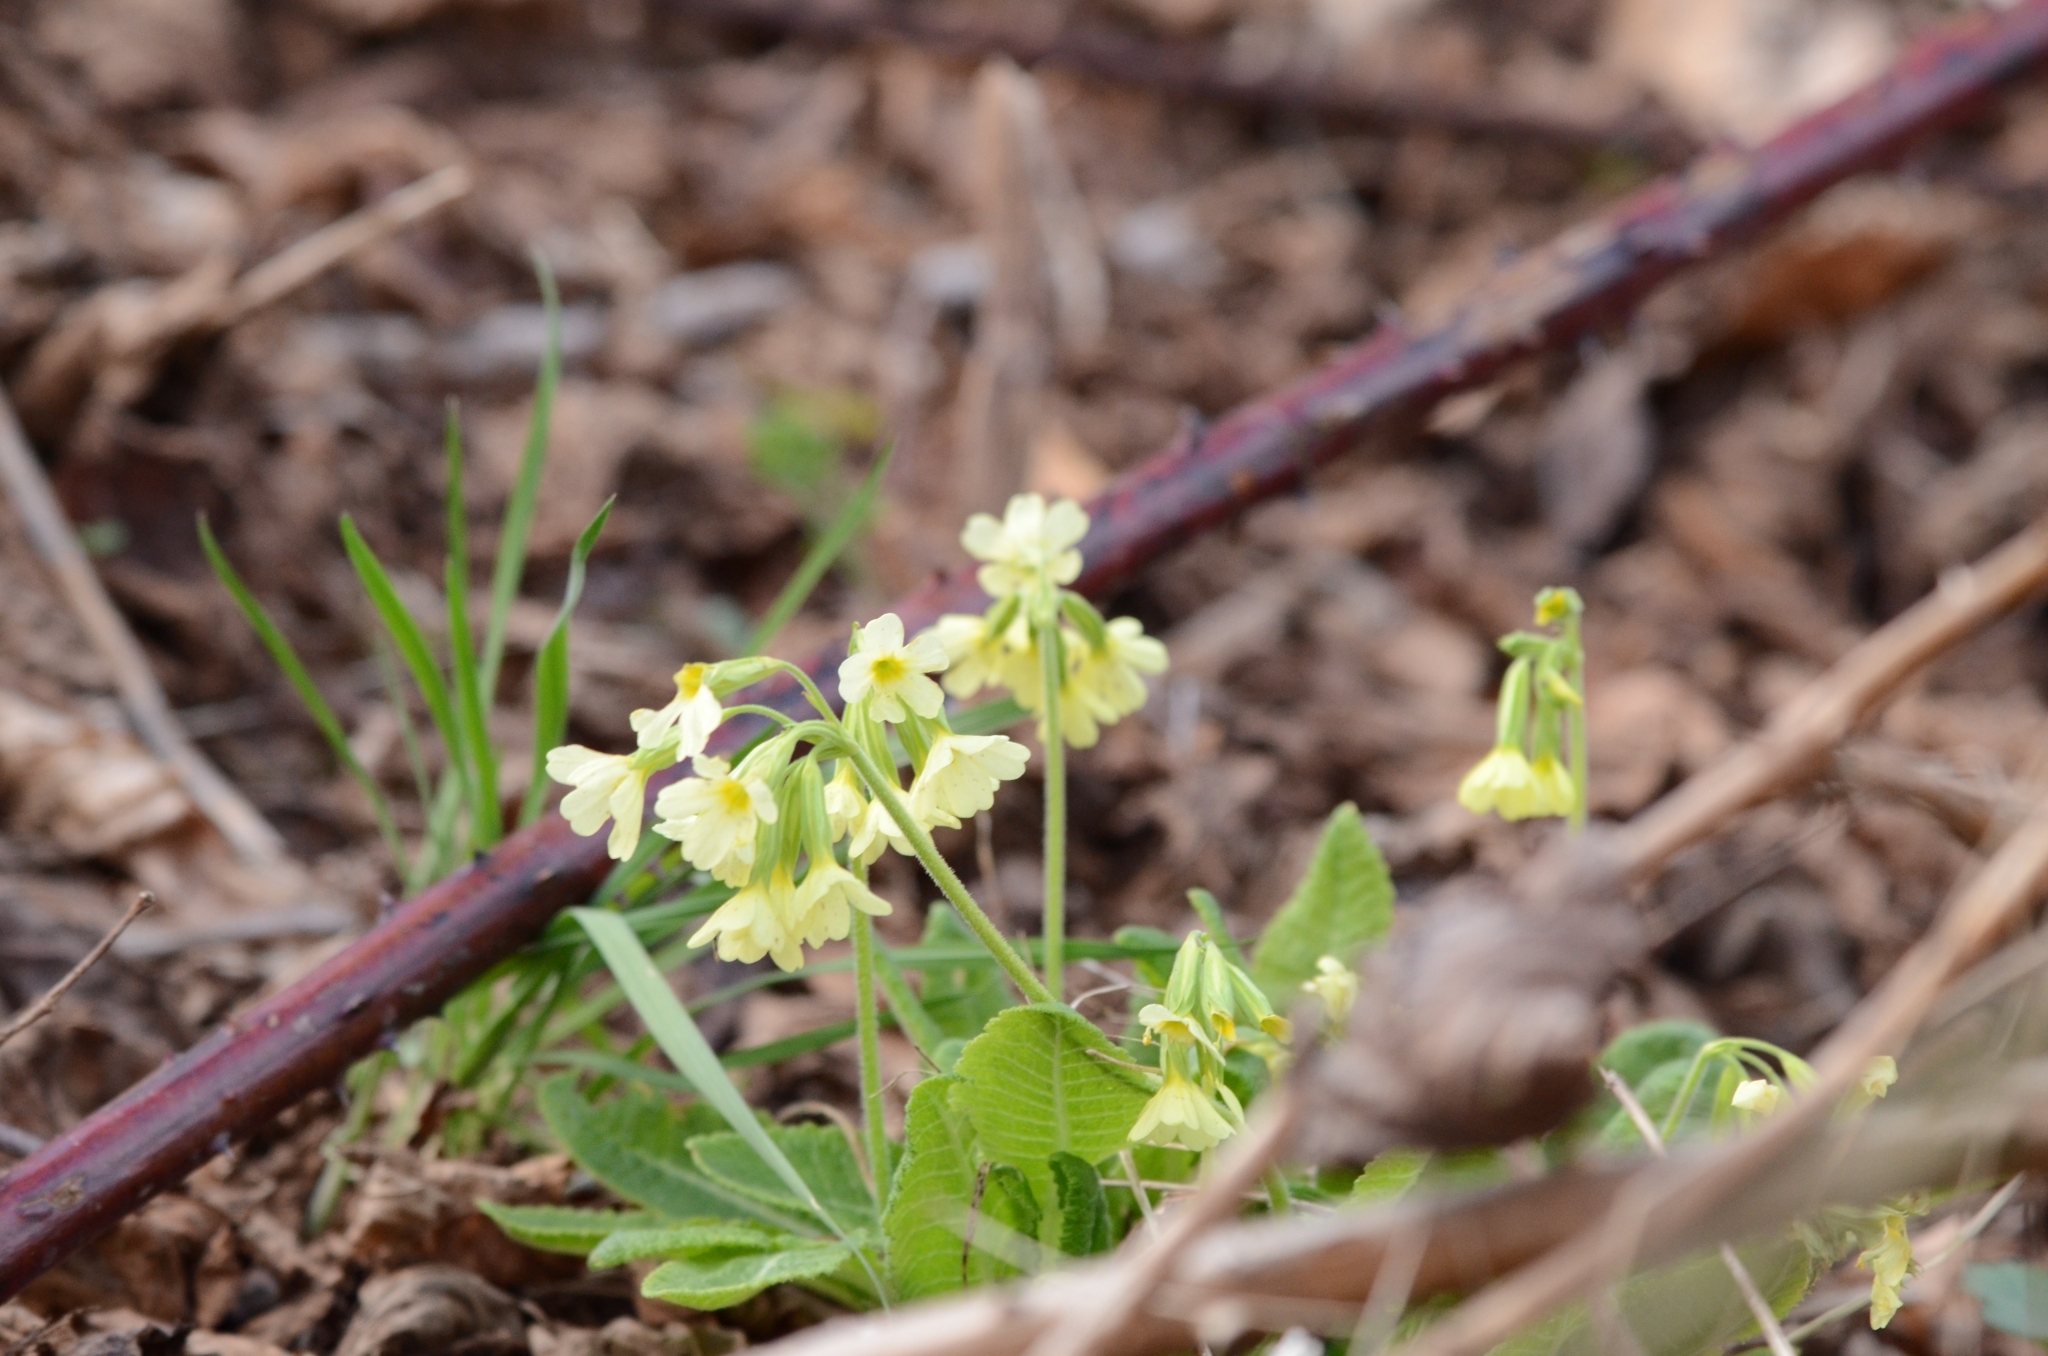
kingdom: Plantae
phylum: Tracheophyta
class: Magnoliopsida
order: Ericales
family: Primulaceae
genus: Primula
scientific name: Primula elatior
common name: Oxlip
